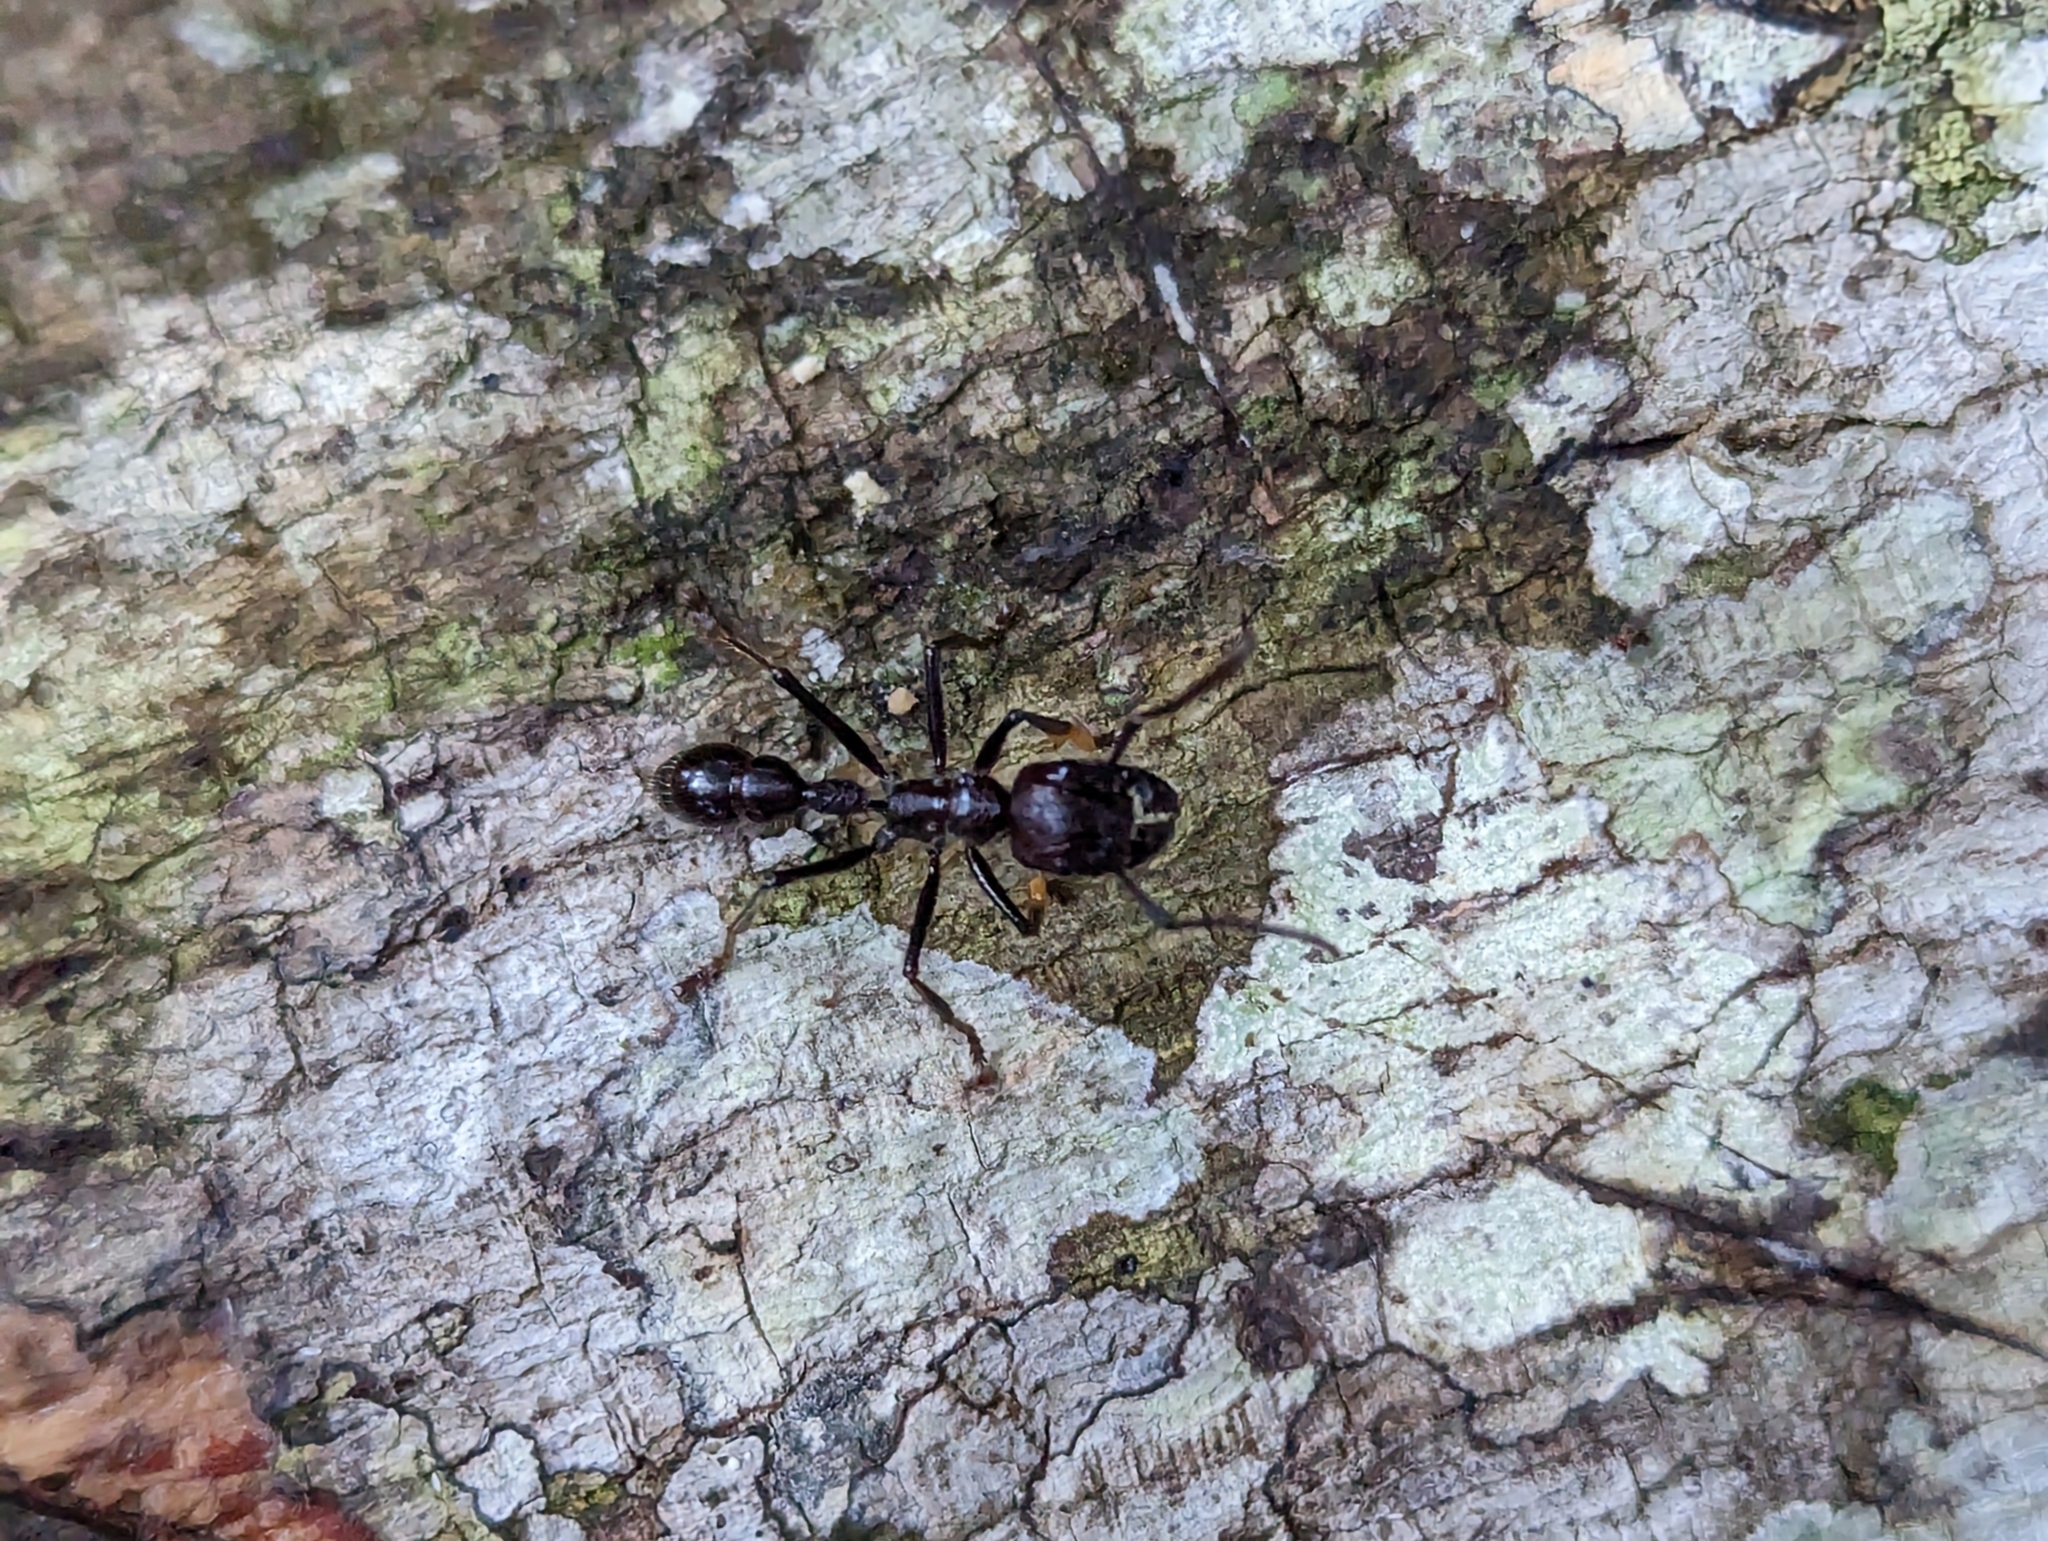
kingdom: Animalia
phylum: Arthropoda
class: Insecta
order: Hymenoptera
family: Formicidae
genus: Paraponera
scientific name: Paraponera clavata
